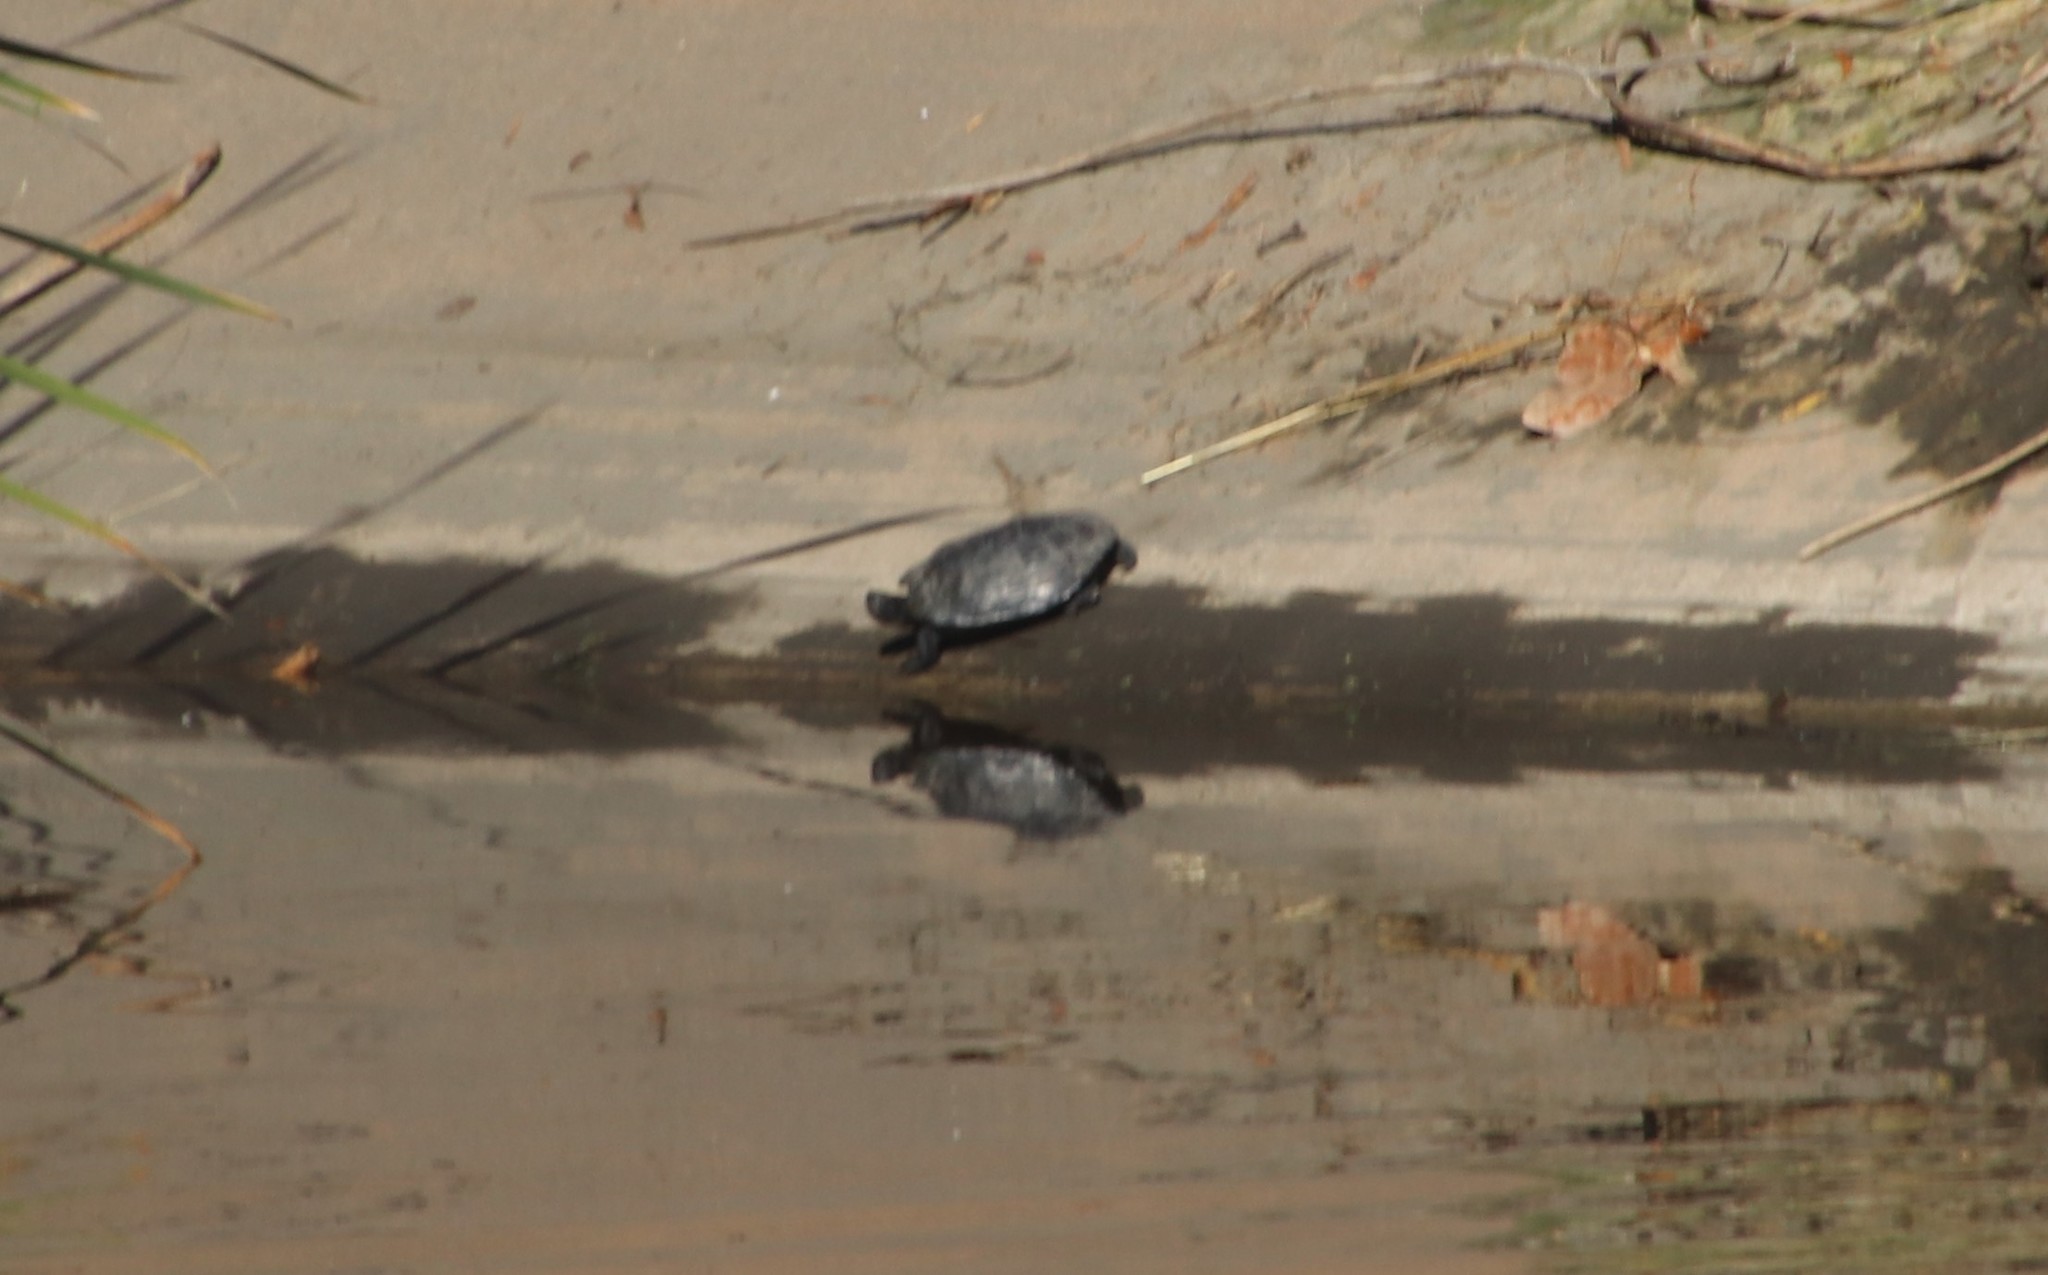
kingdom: Animalia
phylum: Chordata
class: Testudines
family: Emydidae
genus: Trachemys
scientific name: Trachemys scripta
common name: Slider
